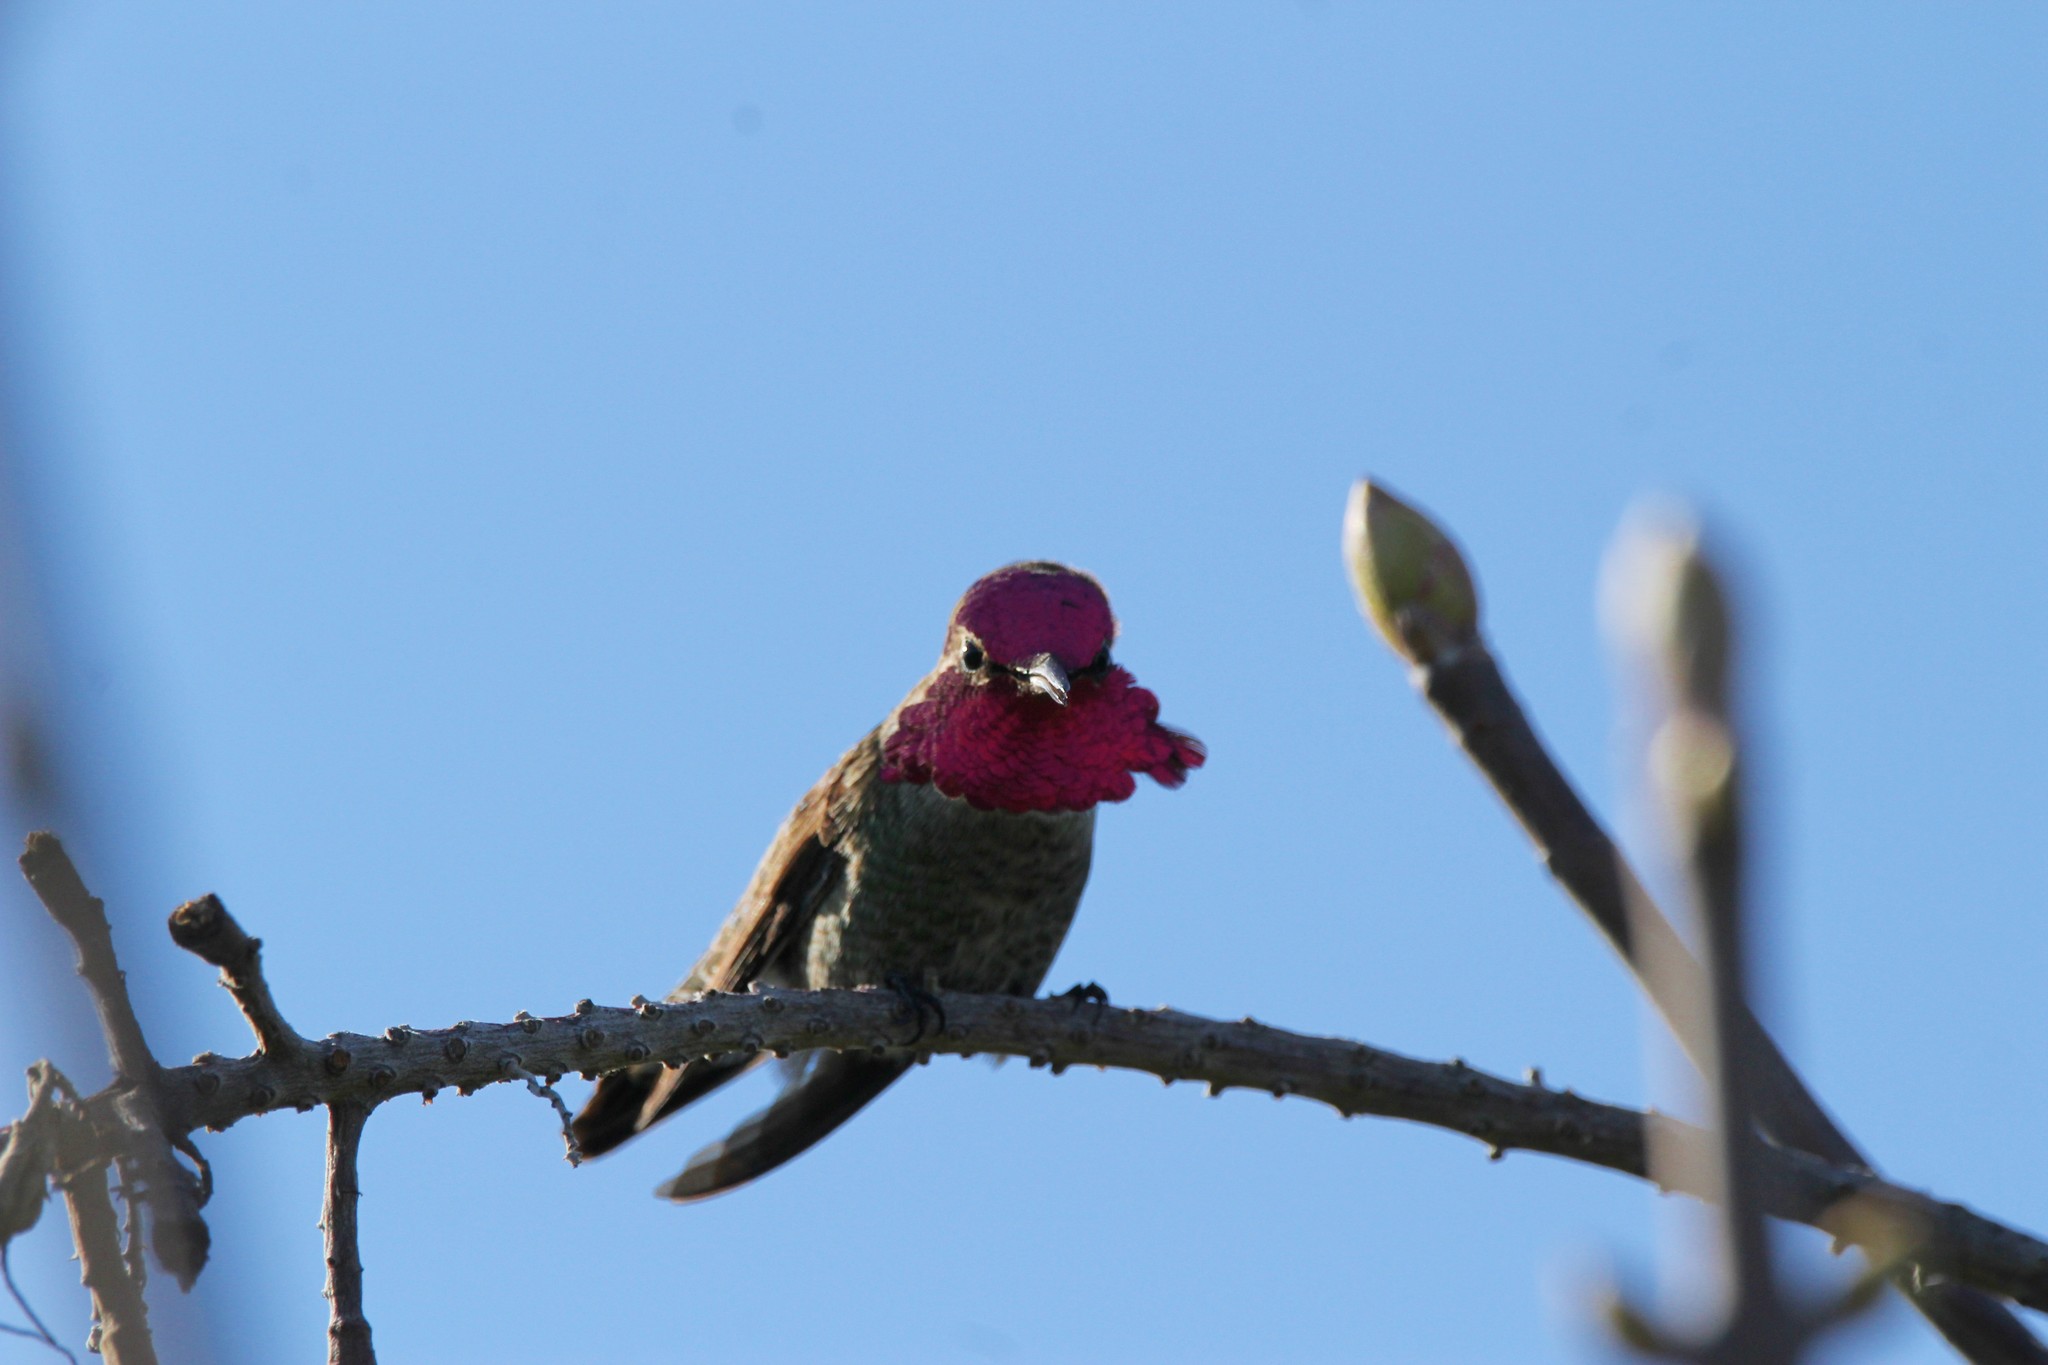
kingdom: Animalia
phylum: Chordata
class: Aves
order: Apodiformes
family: Trochilidae
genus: Calypte
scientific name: Calypte anna
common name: Anna's hummingbird
